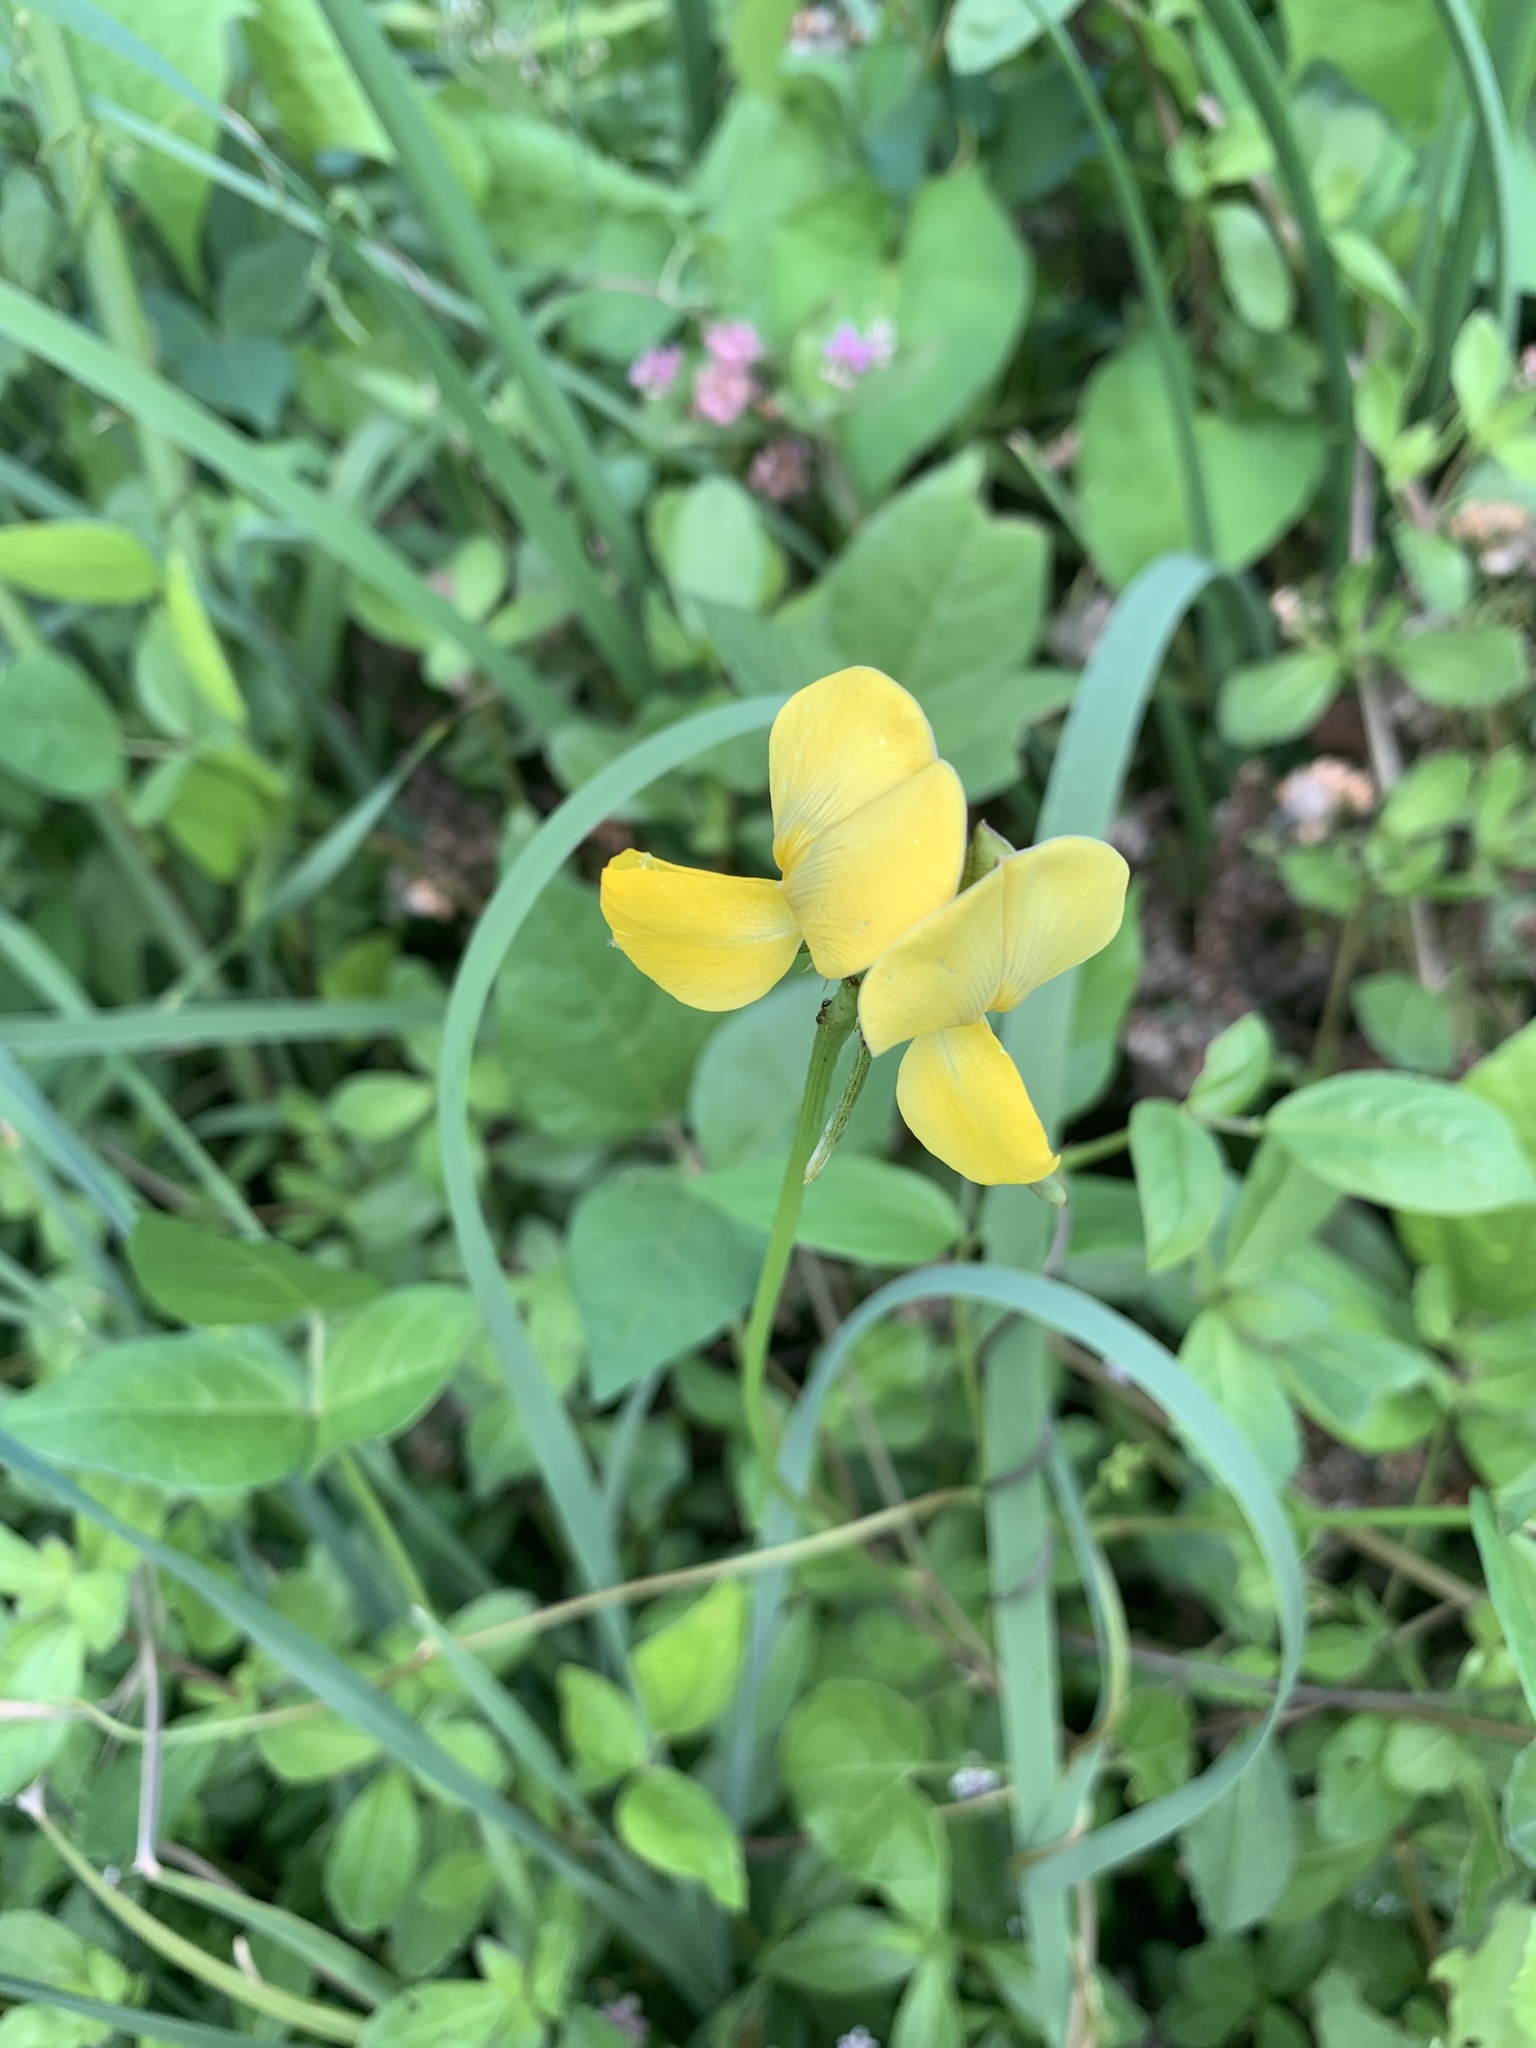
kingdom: Plantae
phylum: Tracheophyta
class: Magnoliopsida
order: Fabales
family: Fabaceae
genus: Vigna
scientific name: Vigna luteola
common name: Hairypod cowpea
